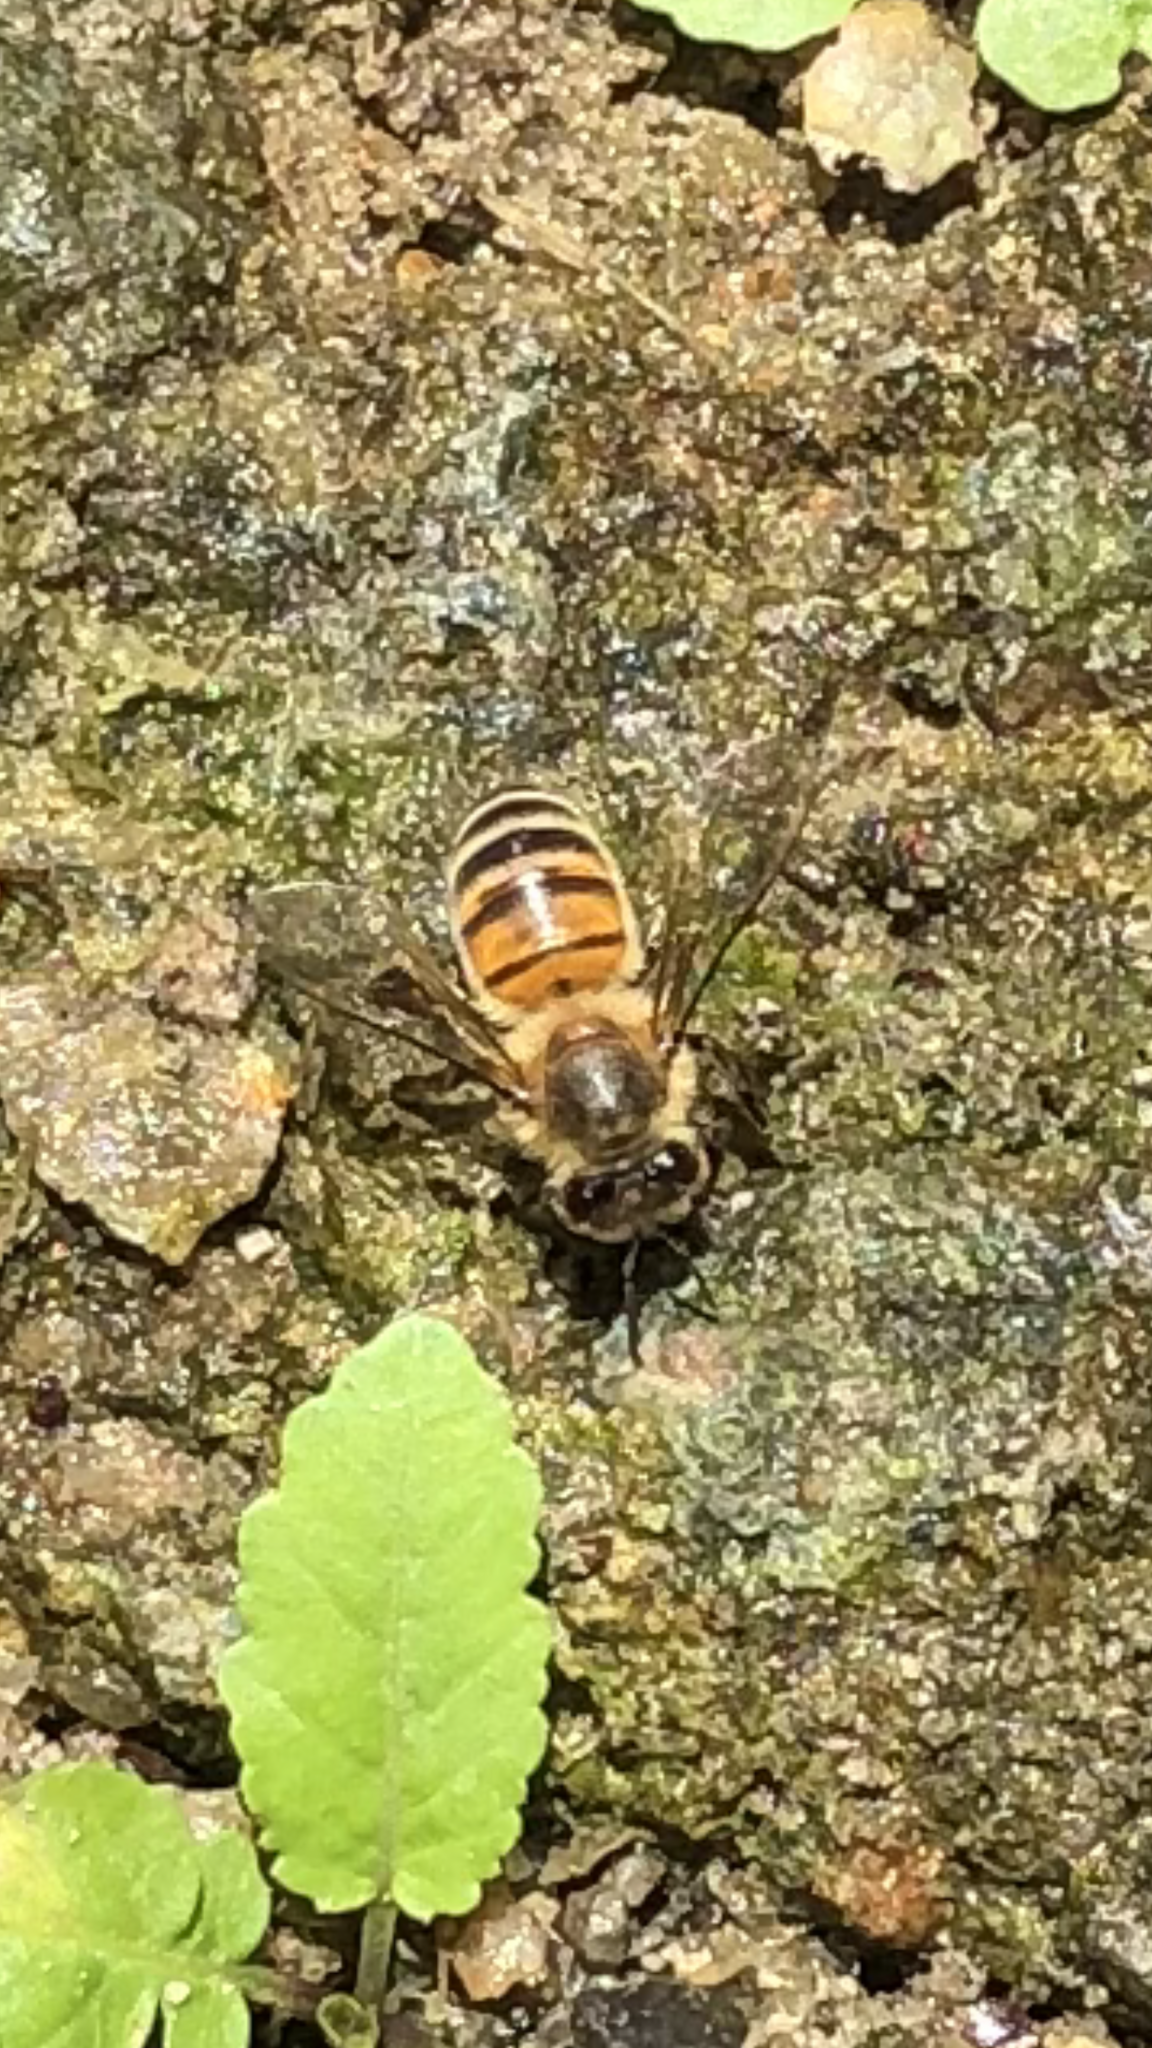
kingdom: Animalia
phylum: Arthropoda
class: Insecta
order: Hymenoptera
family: Apidae
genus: Apis
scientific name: Apis mellifera
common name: Honey bee
